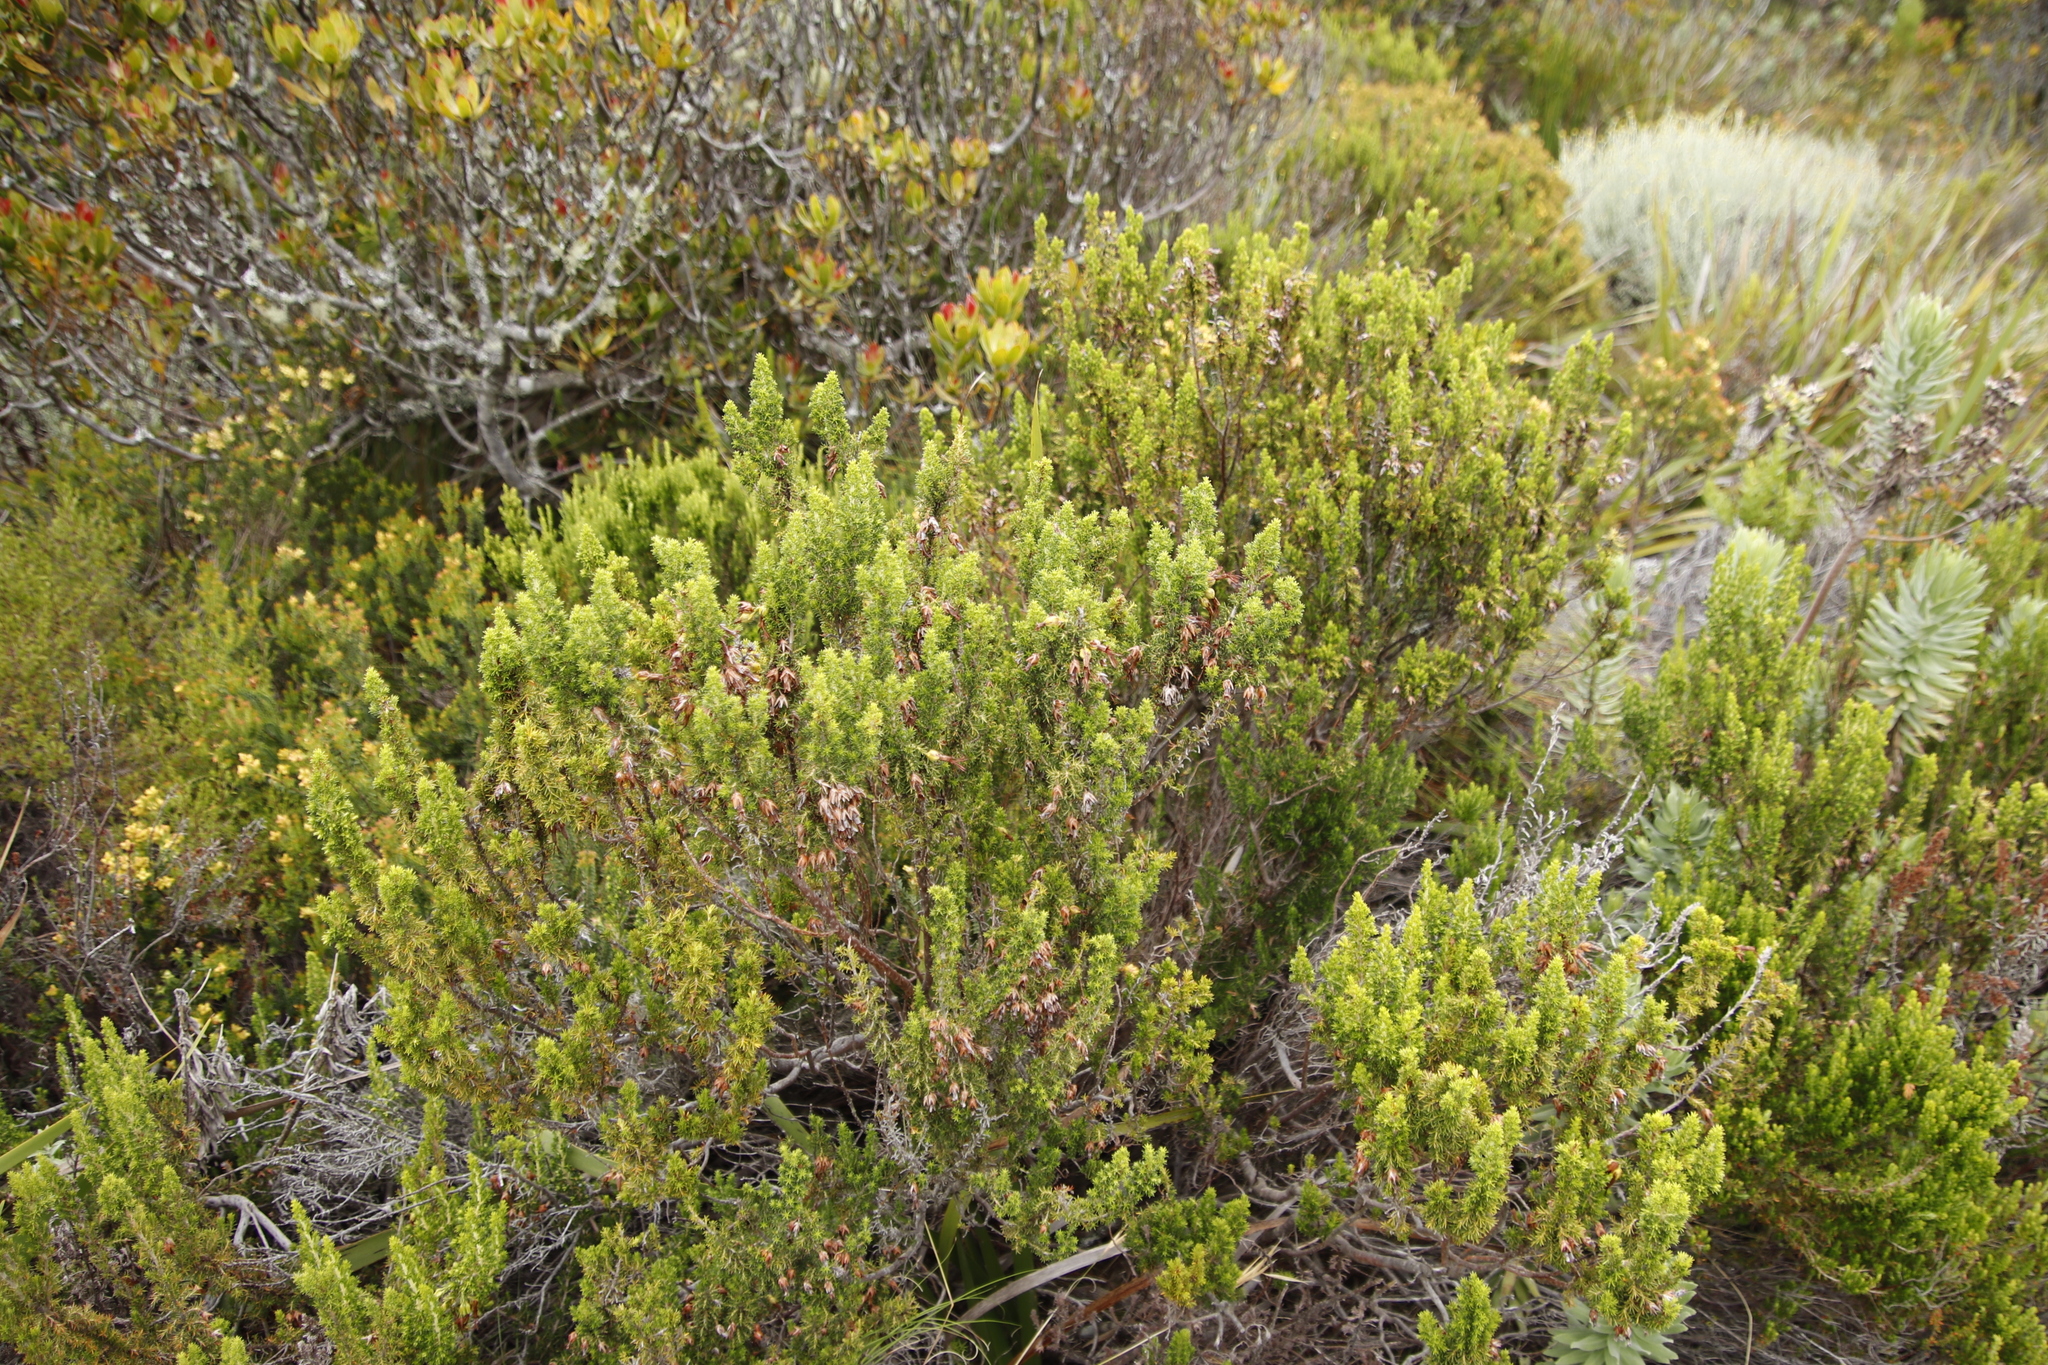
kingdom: Plantae
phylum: Tracheophyta
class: Magnoliopsida
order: Ericales
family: Ericaceae
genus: Erica
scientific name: Erica coccinea
